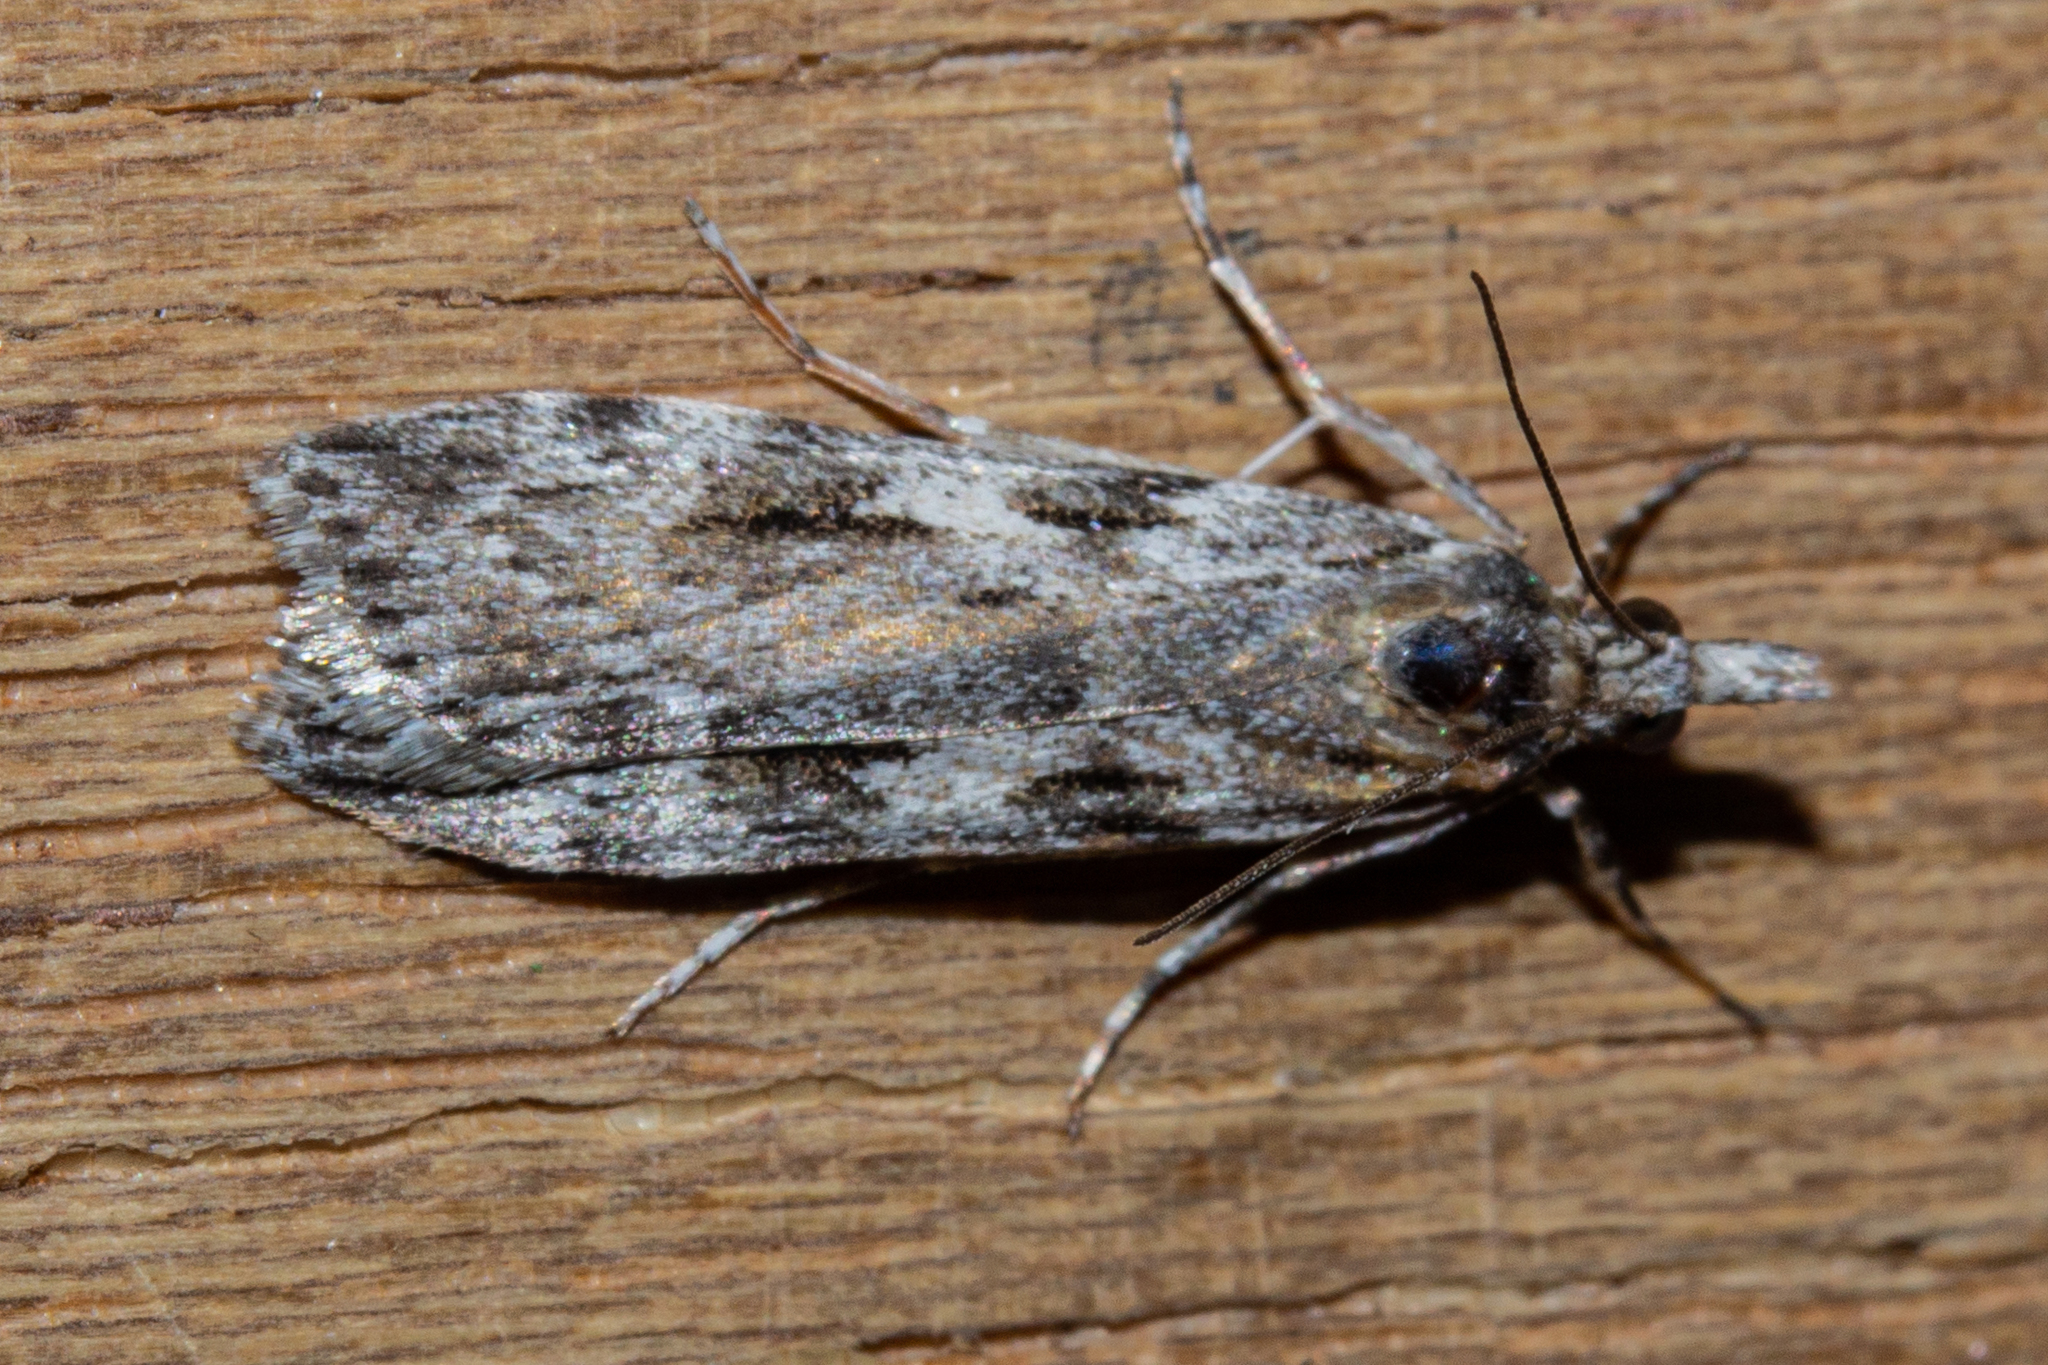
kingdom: Animalia
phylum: Arthropoda
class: Insecta
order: Lepidoptera
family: Crambidae
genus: Scoparia
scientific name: Scoparia halopis
